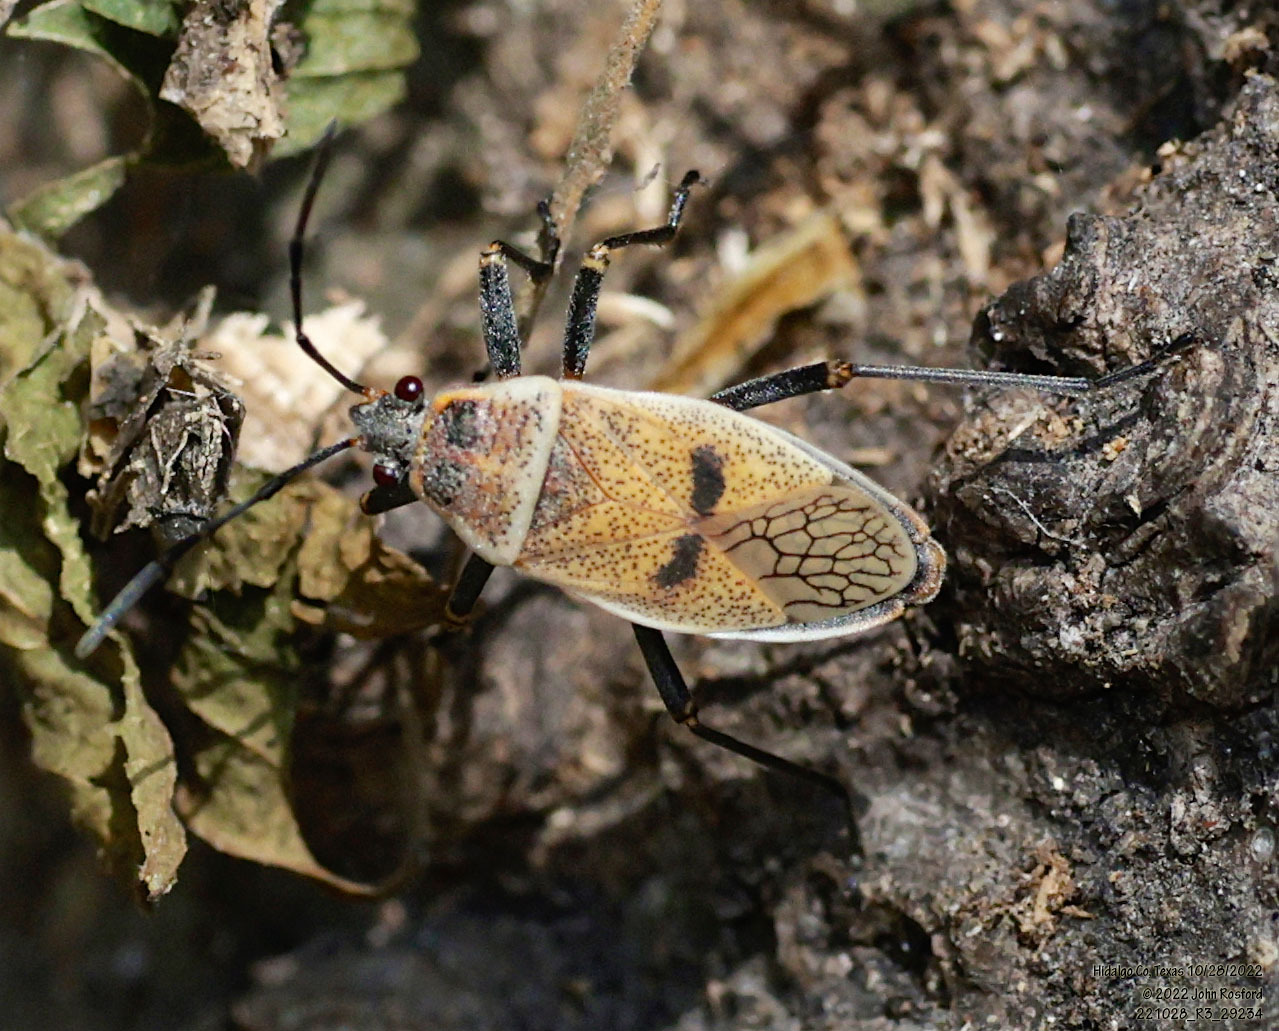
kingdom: Animalia
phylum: Arthropoda
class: Insecta
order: Hemiptera
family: Largidae
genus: Largus
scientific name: Largus maculatus
